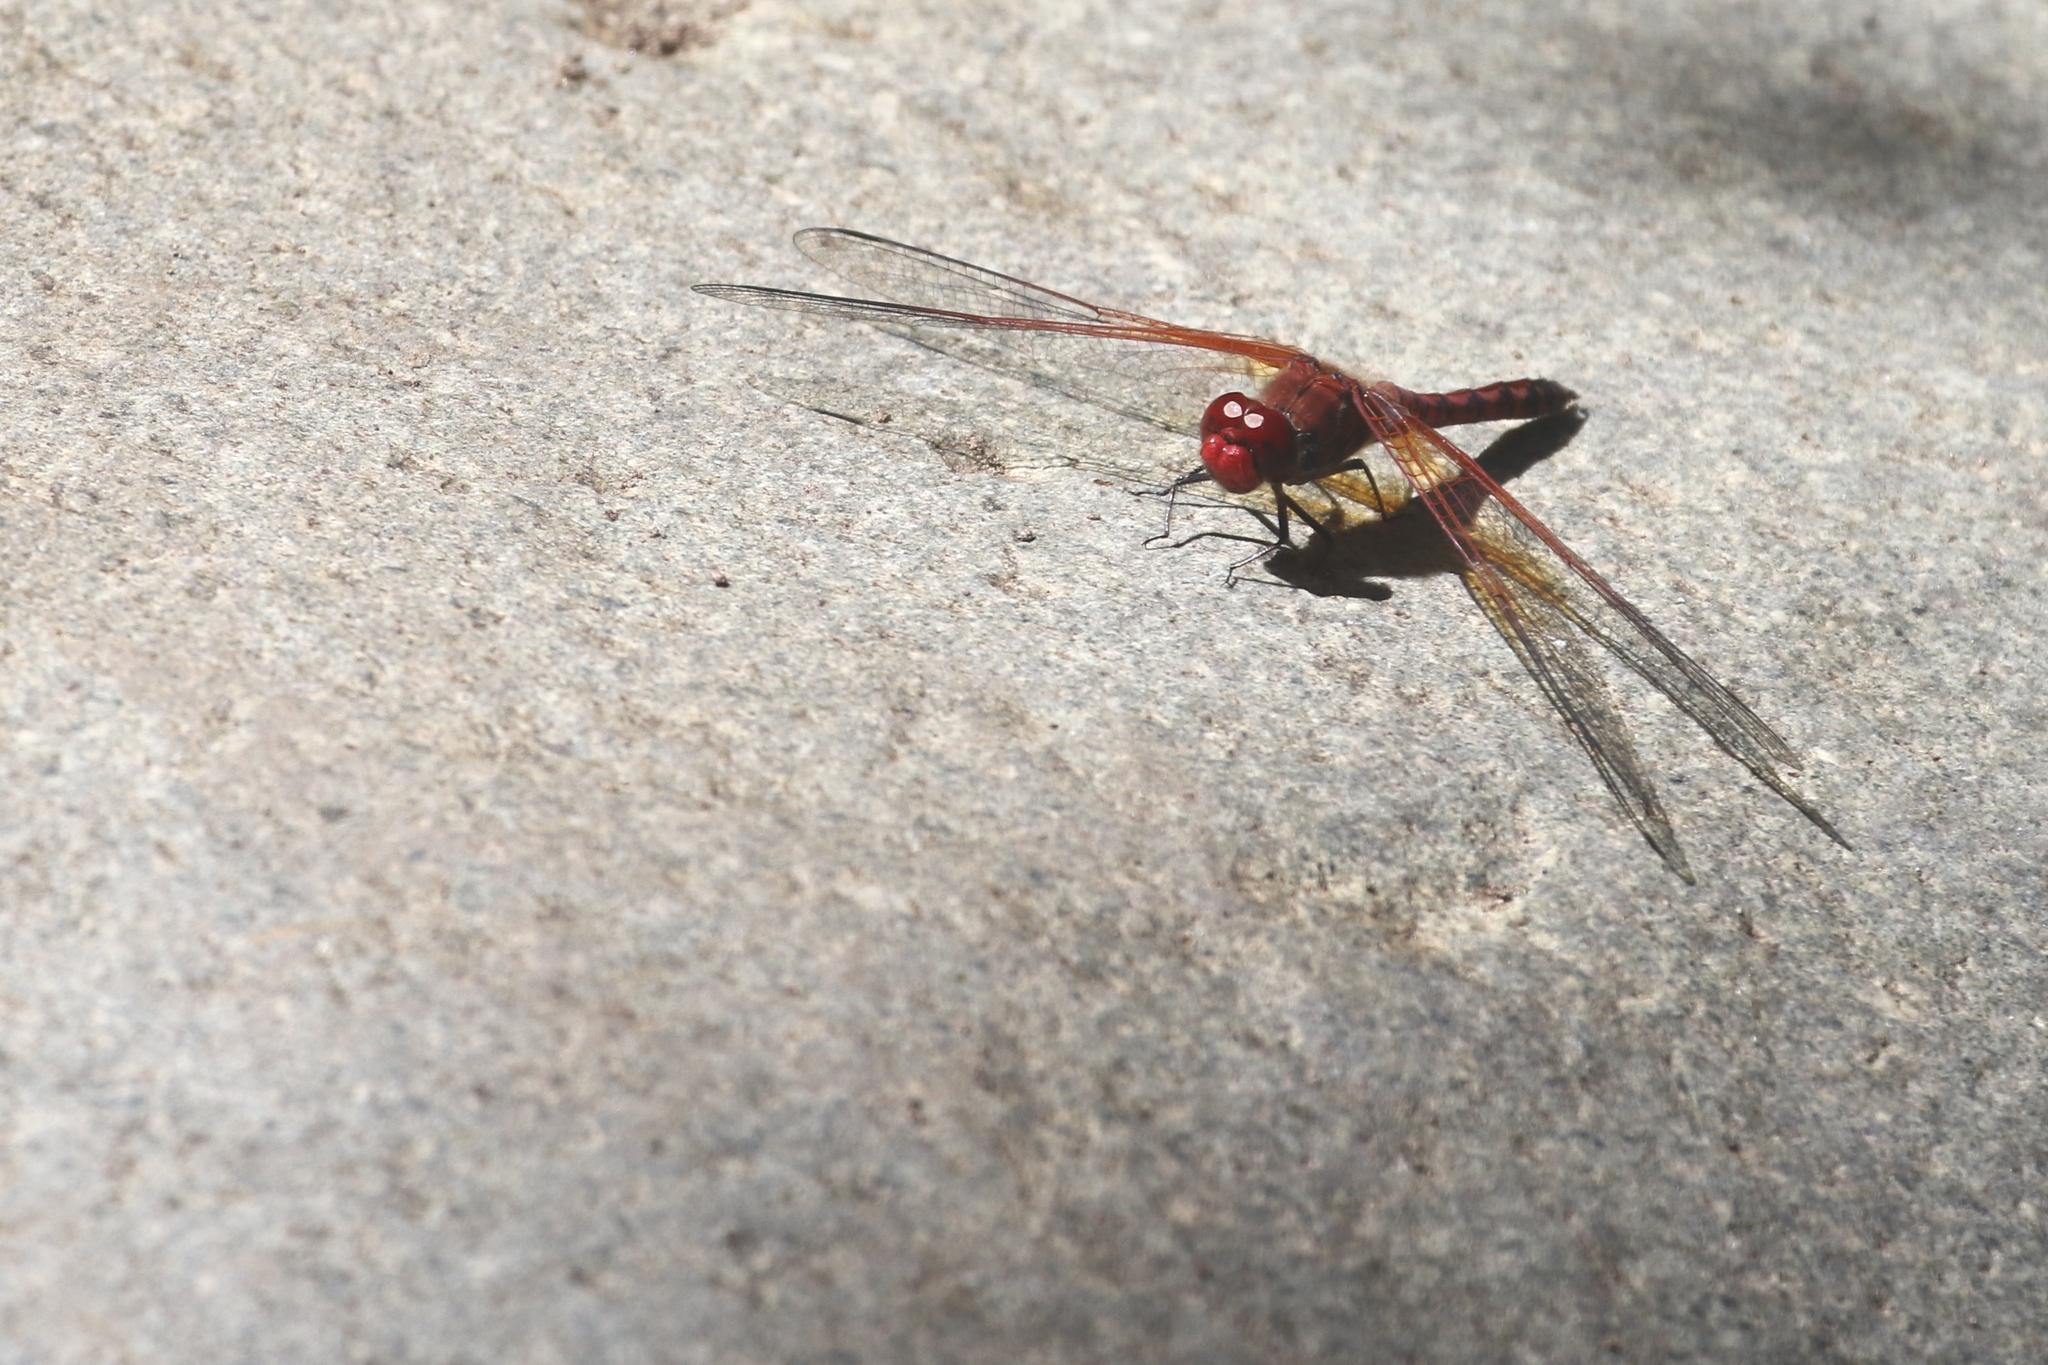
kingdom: Animalia
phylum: Arthropoda
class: Insecta
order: Odonata
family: Libellulidae
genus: Paltothemis
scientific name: Paltothemis lineatipes
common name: Red rock skimmer
